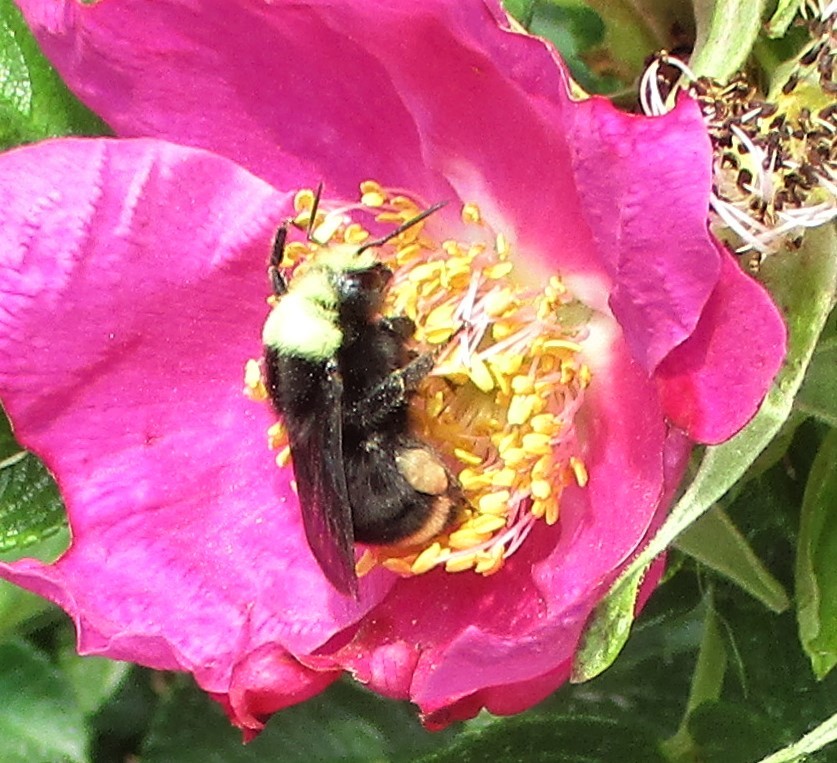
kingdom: Animalia
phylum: Arthropoda
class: Insecta
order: Hymenoptera
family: Apidae
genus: Bombus
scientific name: Bombus vosnesenskii
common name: Vosnesensky bumble bee
